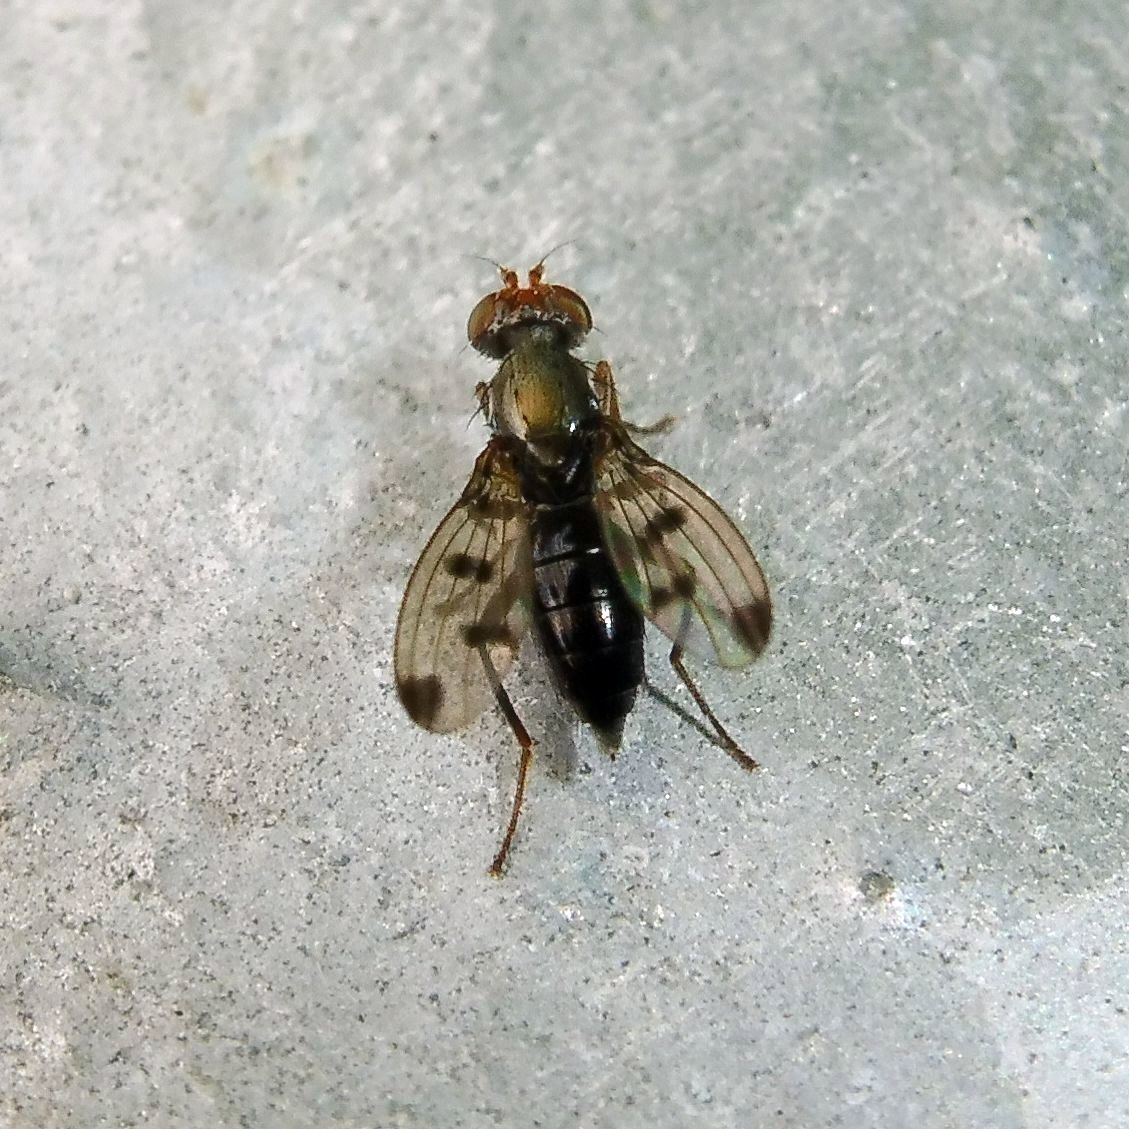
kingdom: Animalia
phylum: Arthropoda
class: Insecta
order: Diptera
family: Opomyzidae
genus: Geomyza
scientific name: Geomyza tripunctata
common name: Cereal fly
